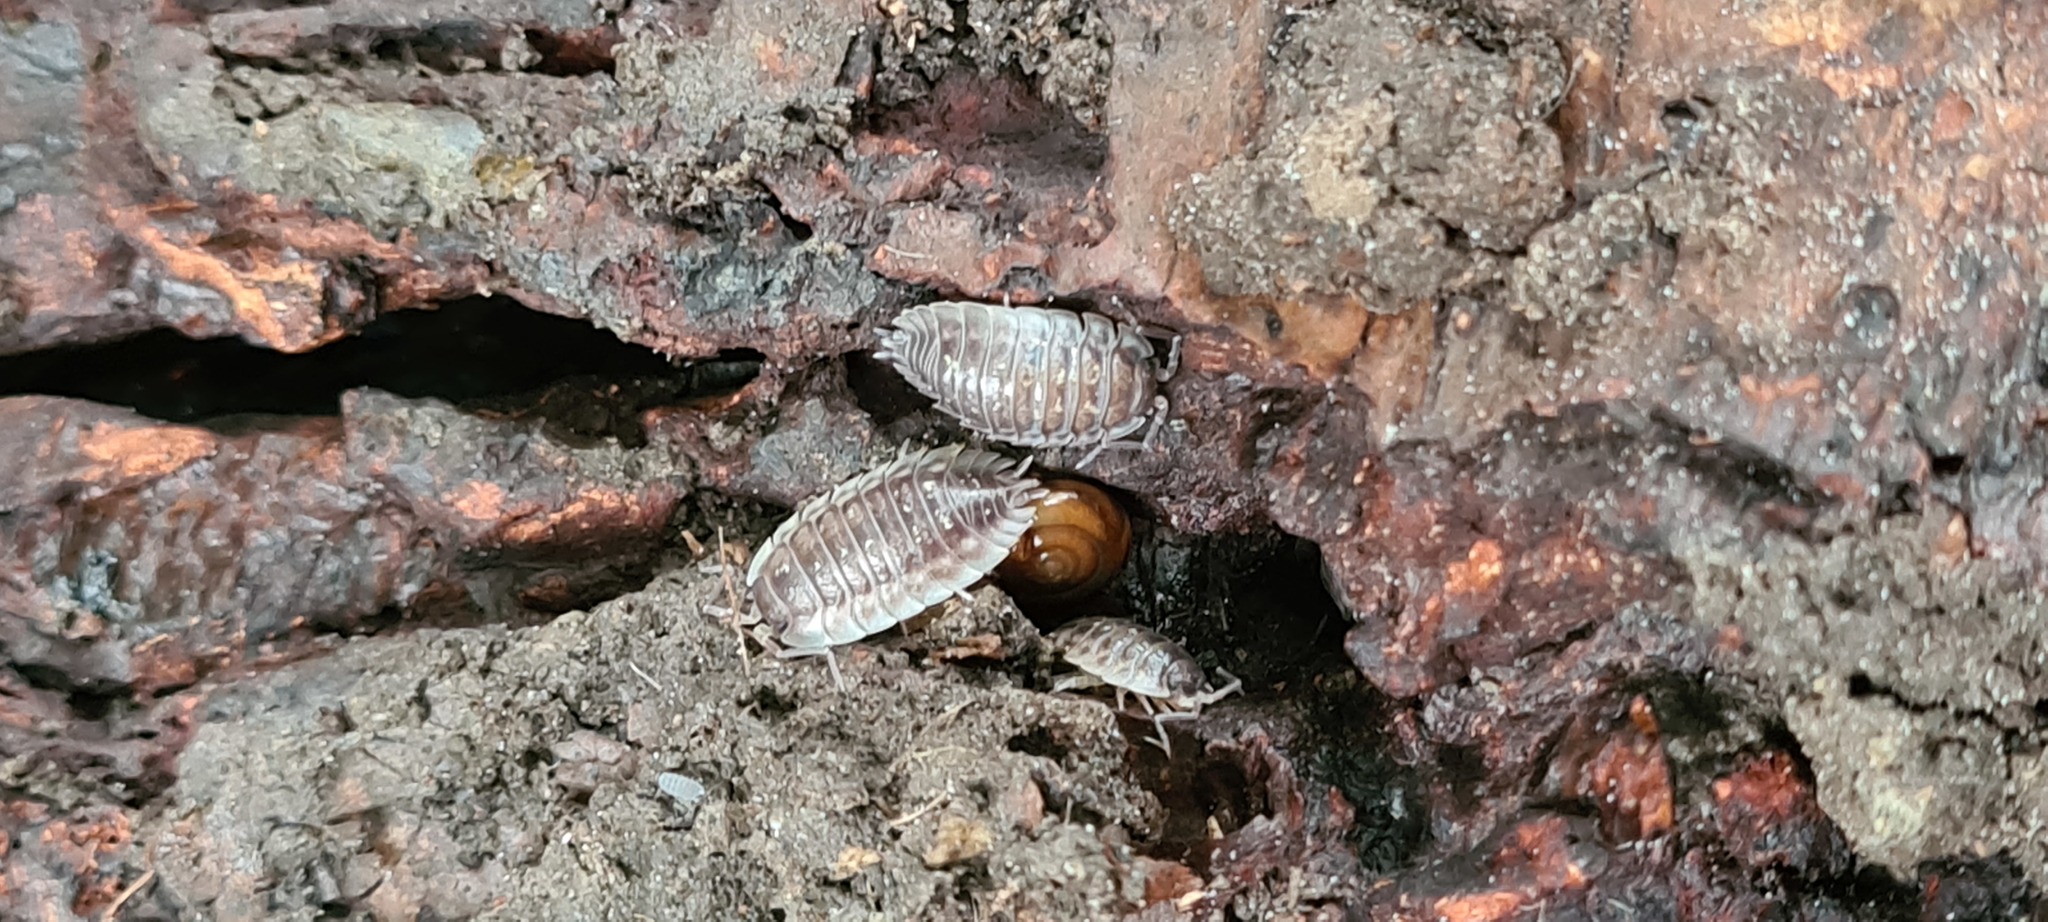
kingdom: Animalia
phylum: Arthropoda
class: Malacostraca
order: Isopoda
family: Oniscidae
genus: Oniscus
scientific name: Oniscus asellus
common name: Common shiny woodlouse
